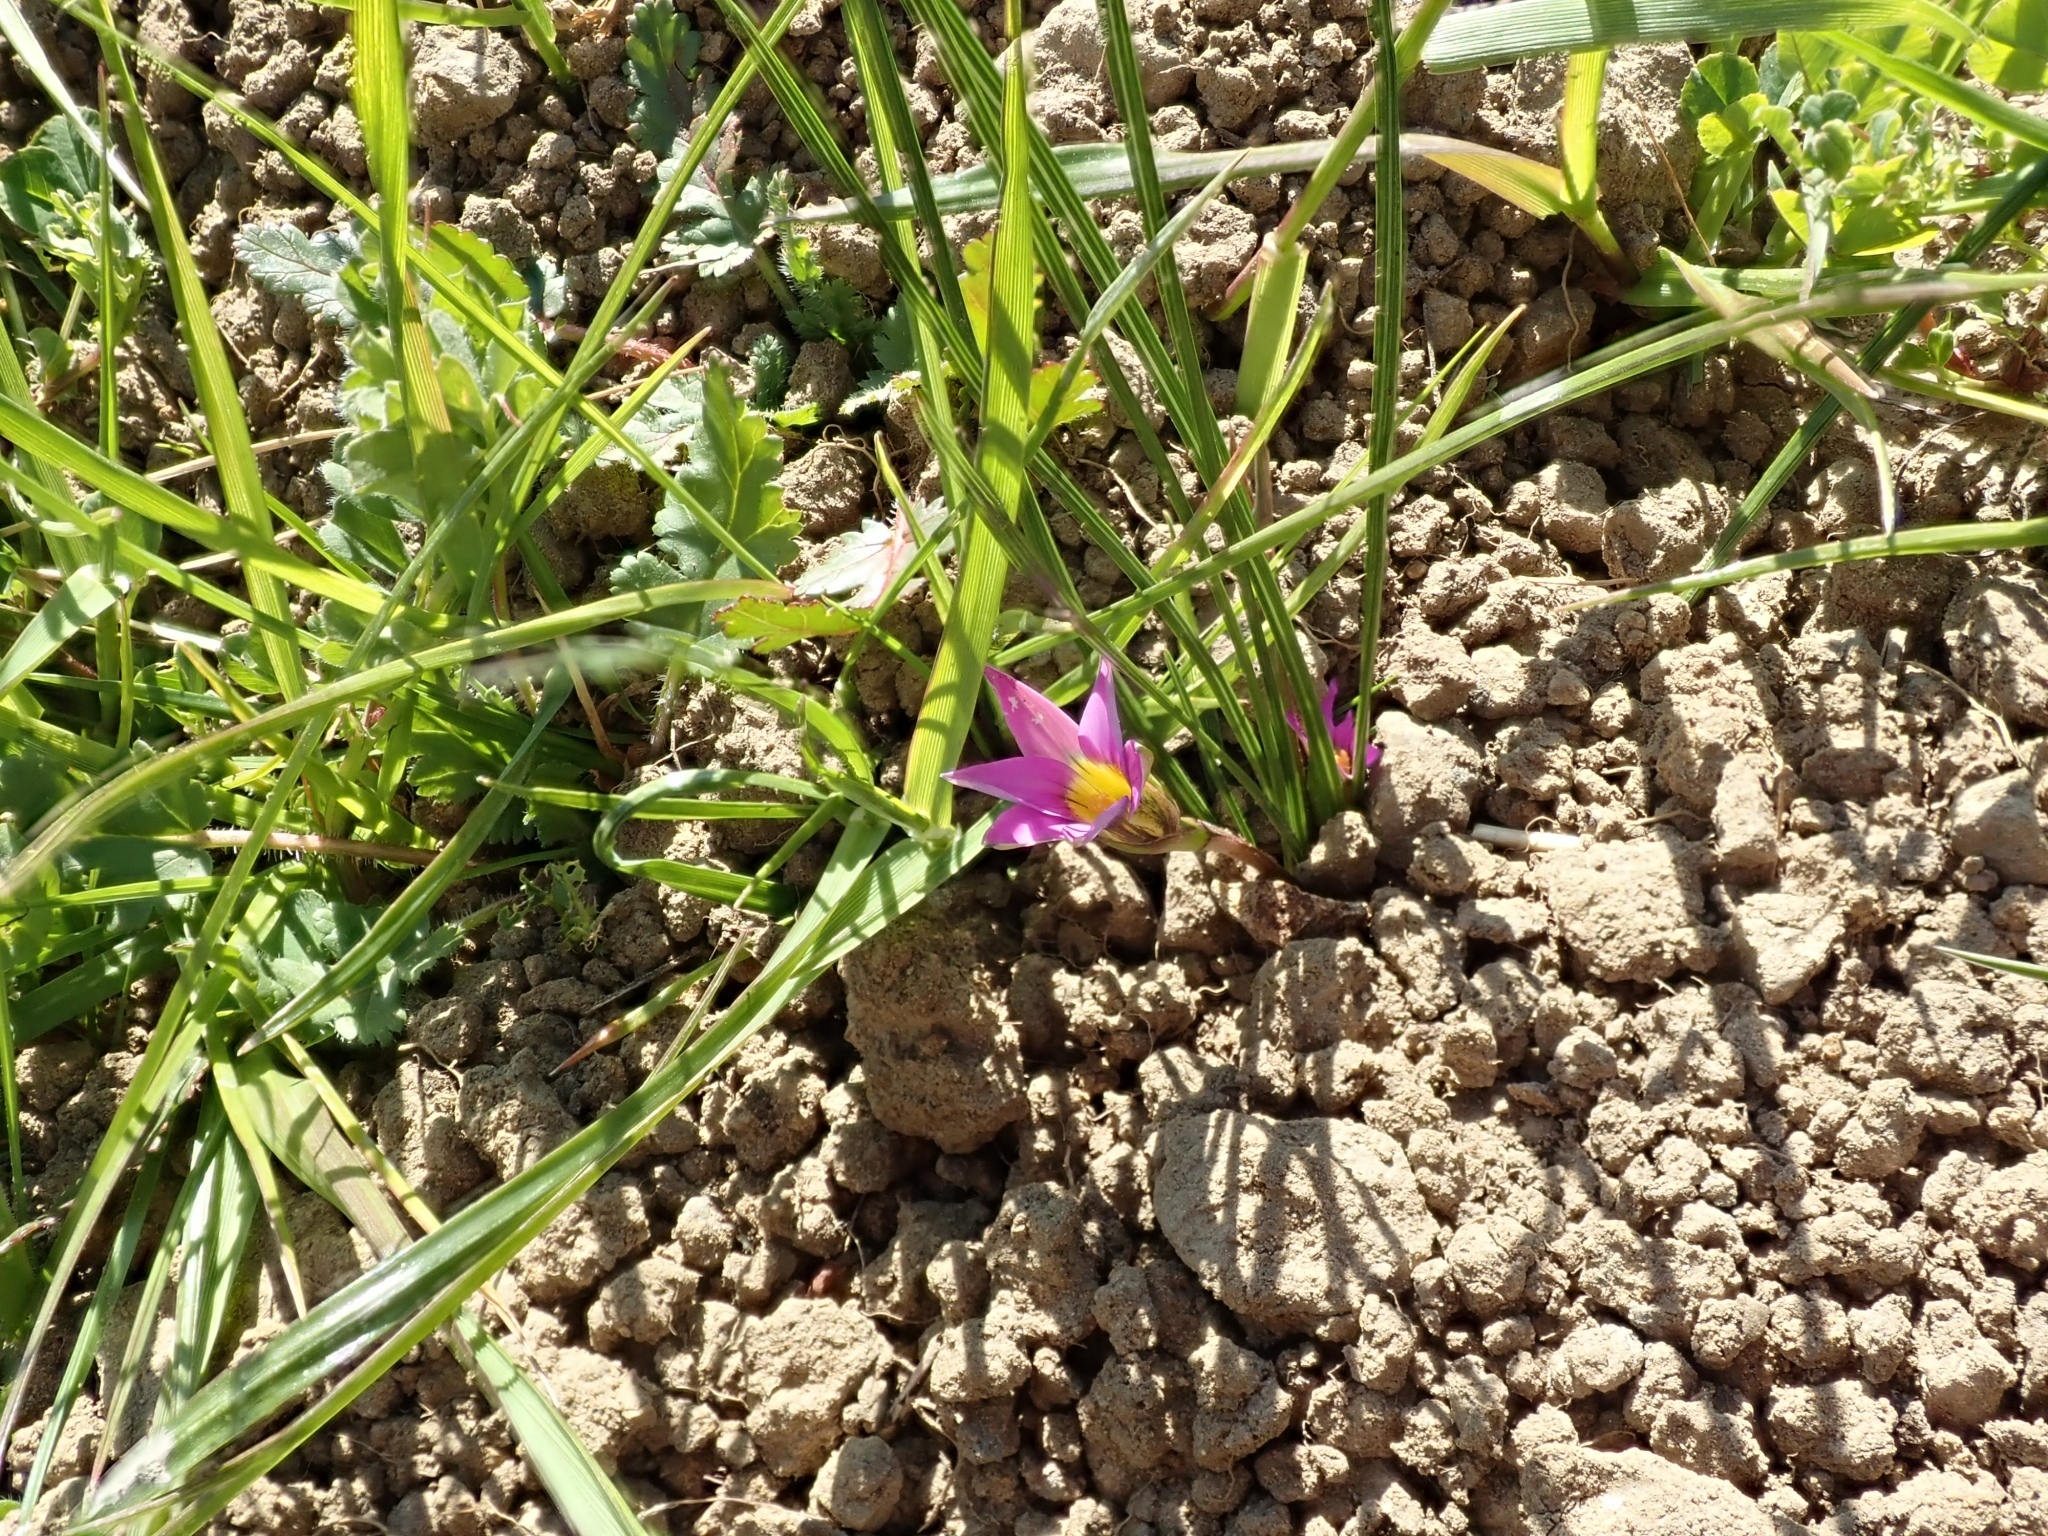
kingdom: Plantae
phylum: Tracheophyta
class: Liliopsida
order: Asparagales
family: Iridaceae
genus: Romulea
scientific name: Romulea rosea
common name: Oniongrass
